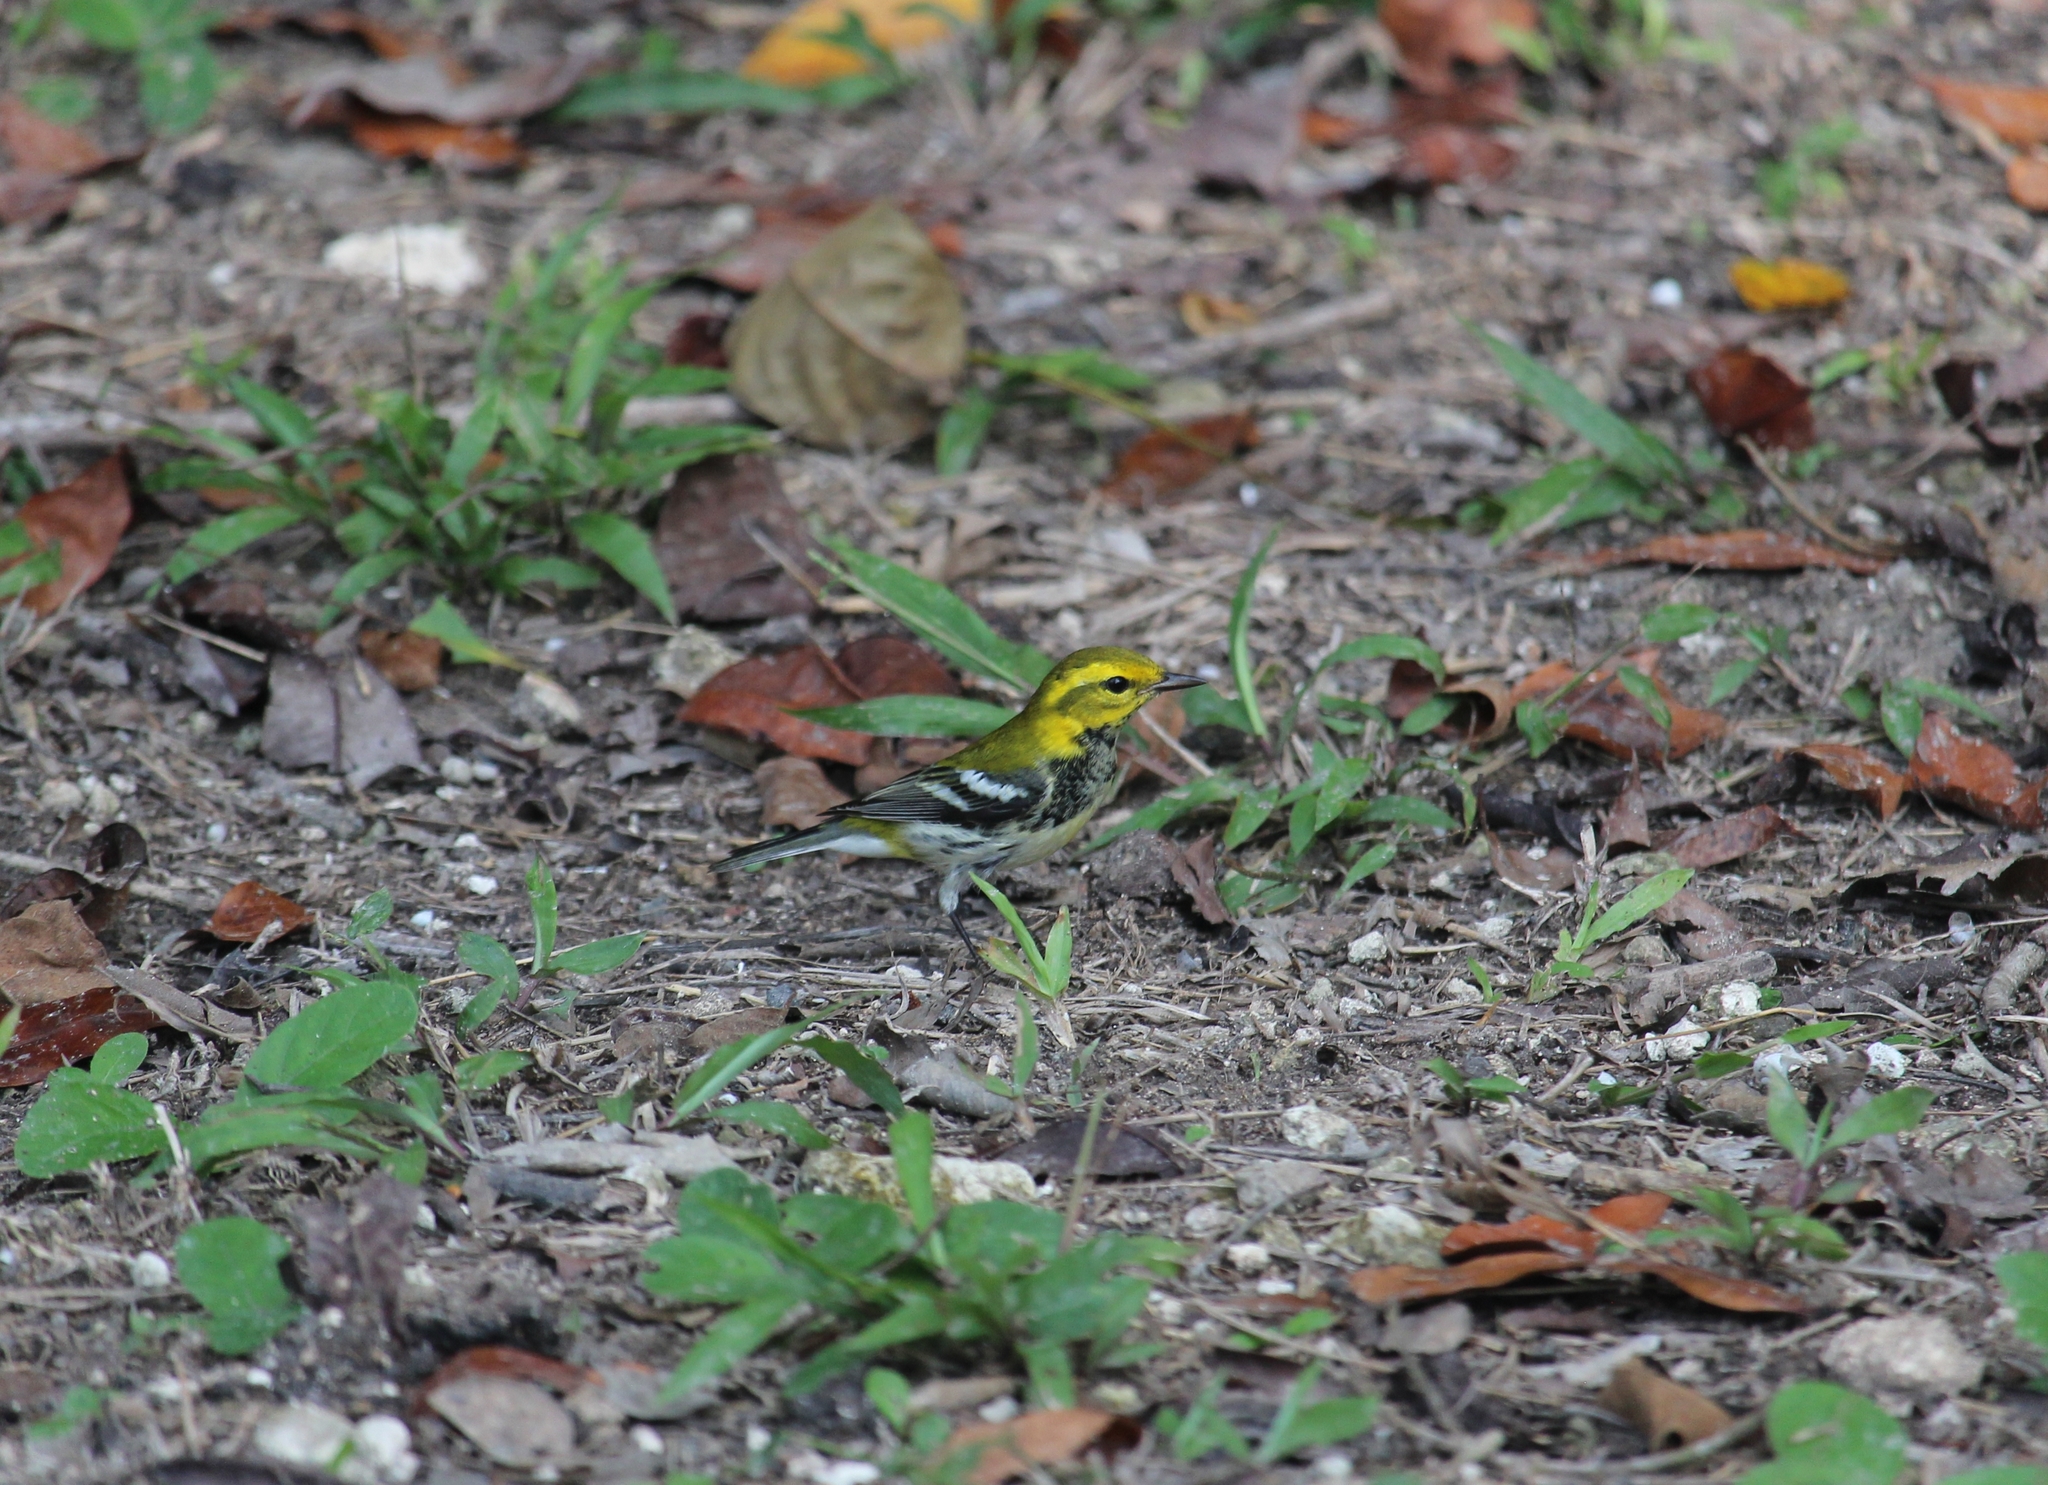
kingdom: Animalia
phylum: Chordata
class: Aves
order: Passeriformes
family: Parulidae
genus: Setophaga
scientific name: Setophaga virens
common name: Black-throated green warbler
